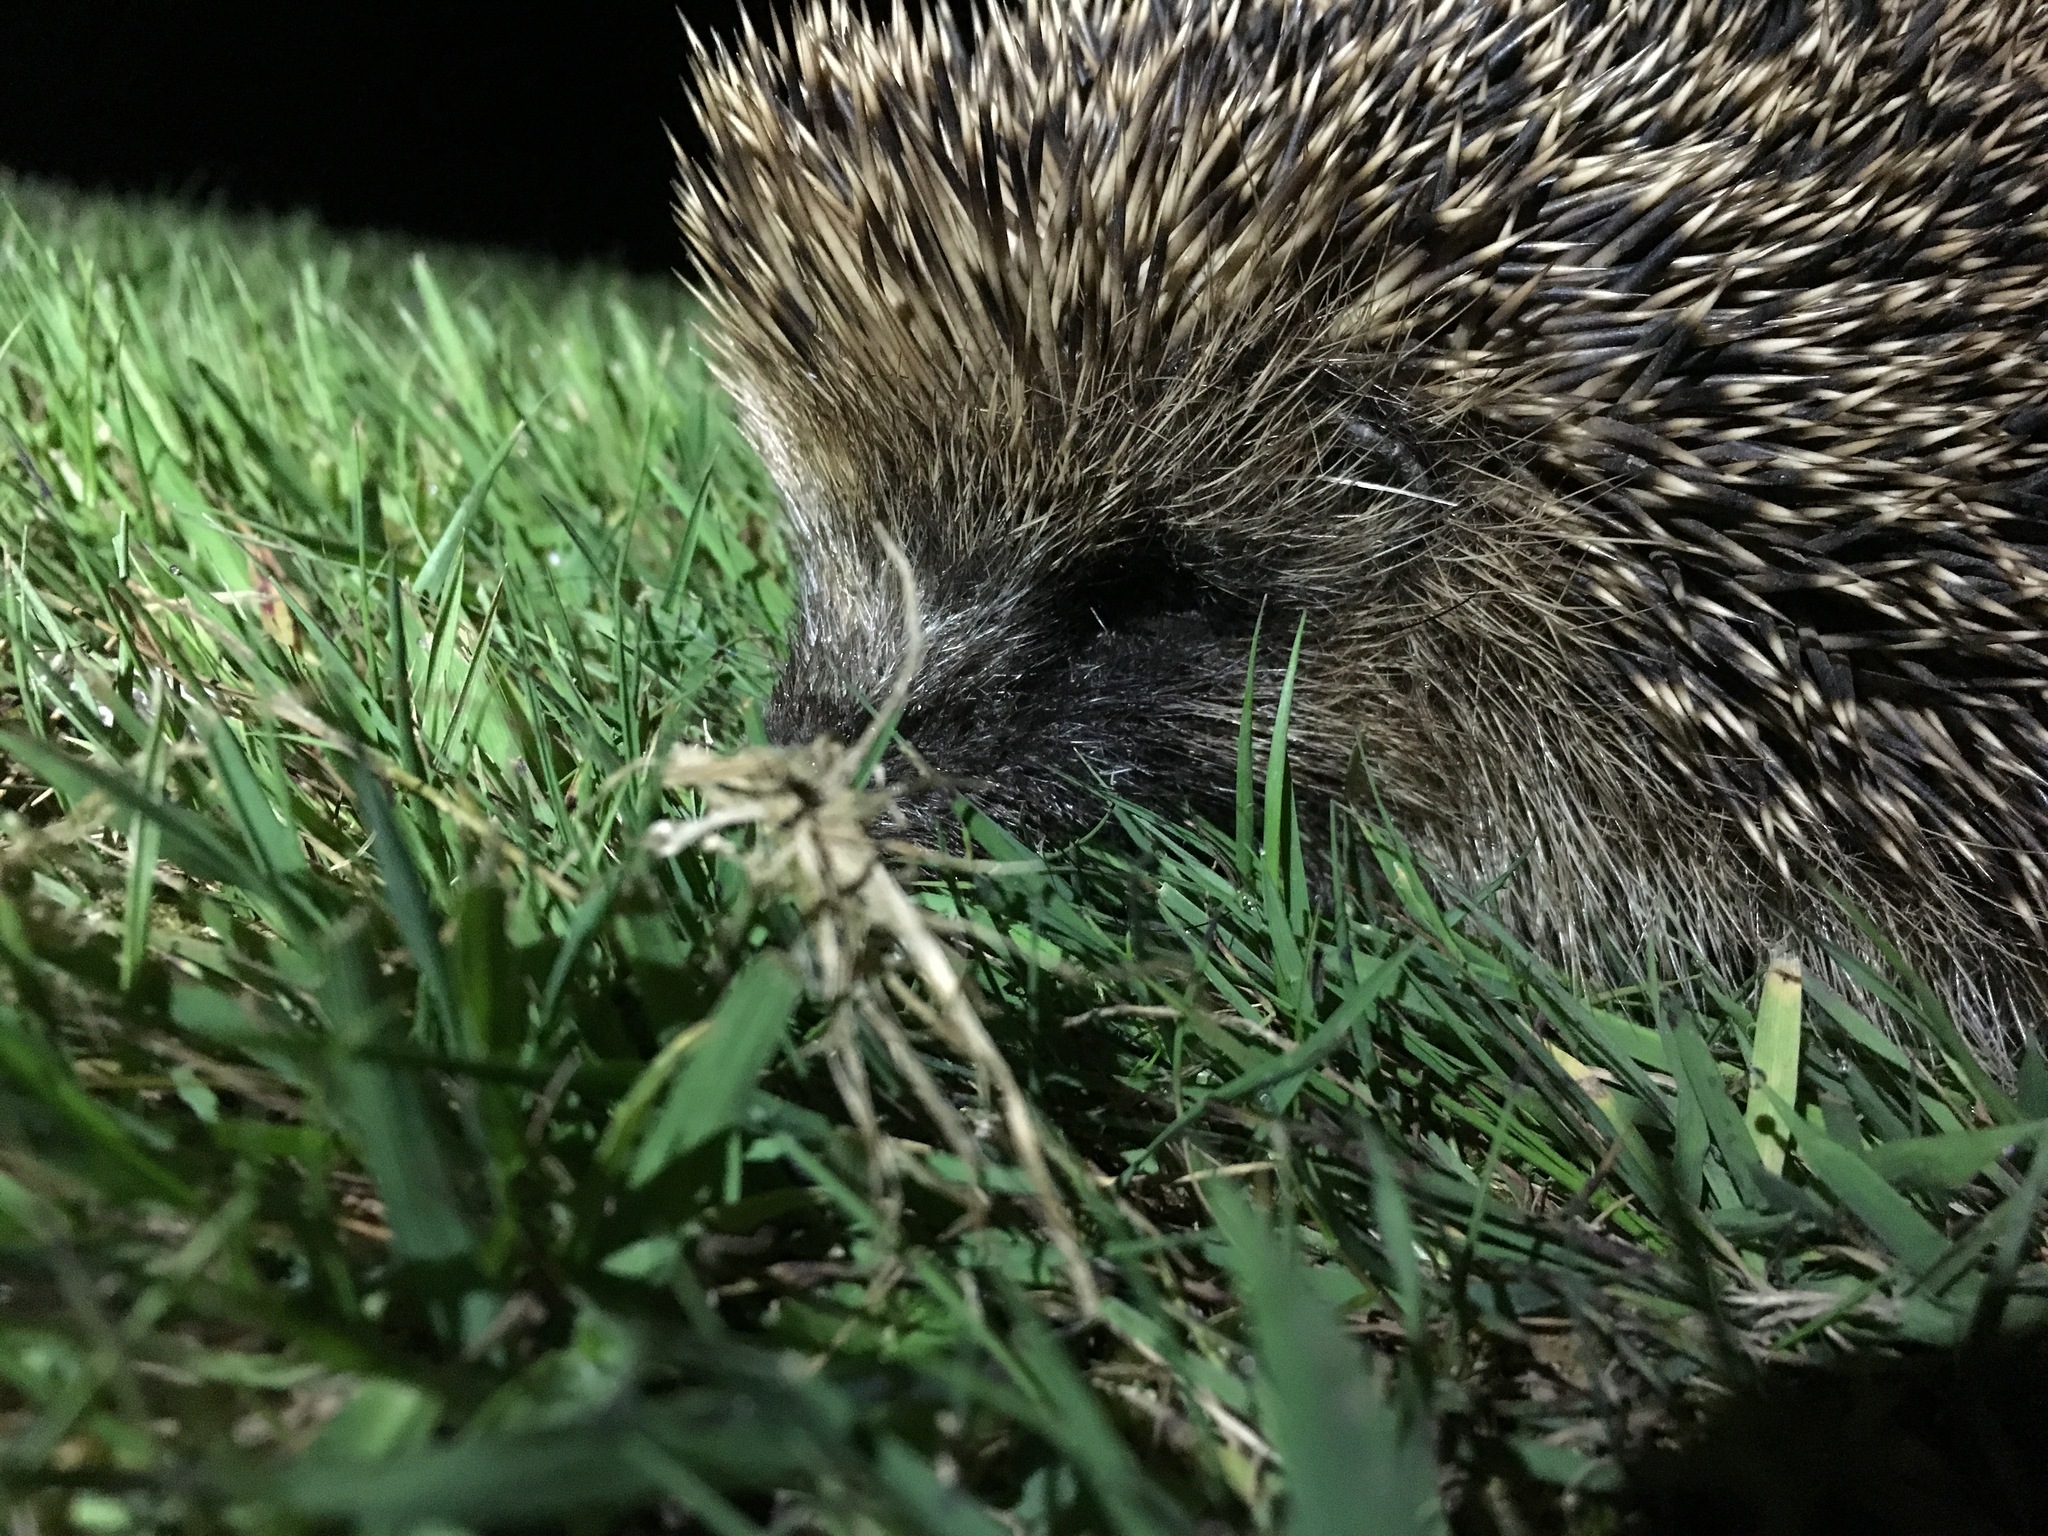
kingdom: Animalia
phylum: Chordata
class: Mammalia
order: Erinaceomorpha
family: Erinaceidae
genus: Erinaceus
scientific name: Erinaceus europaeus
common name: West european hedgehog
